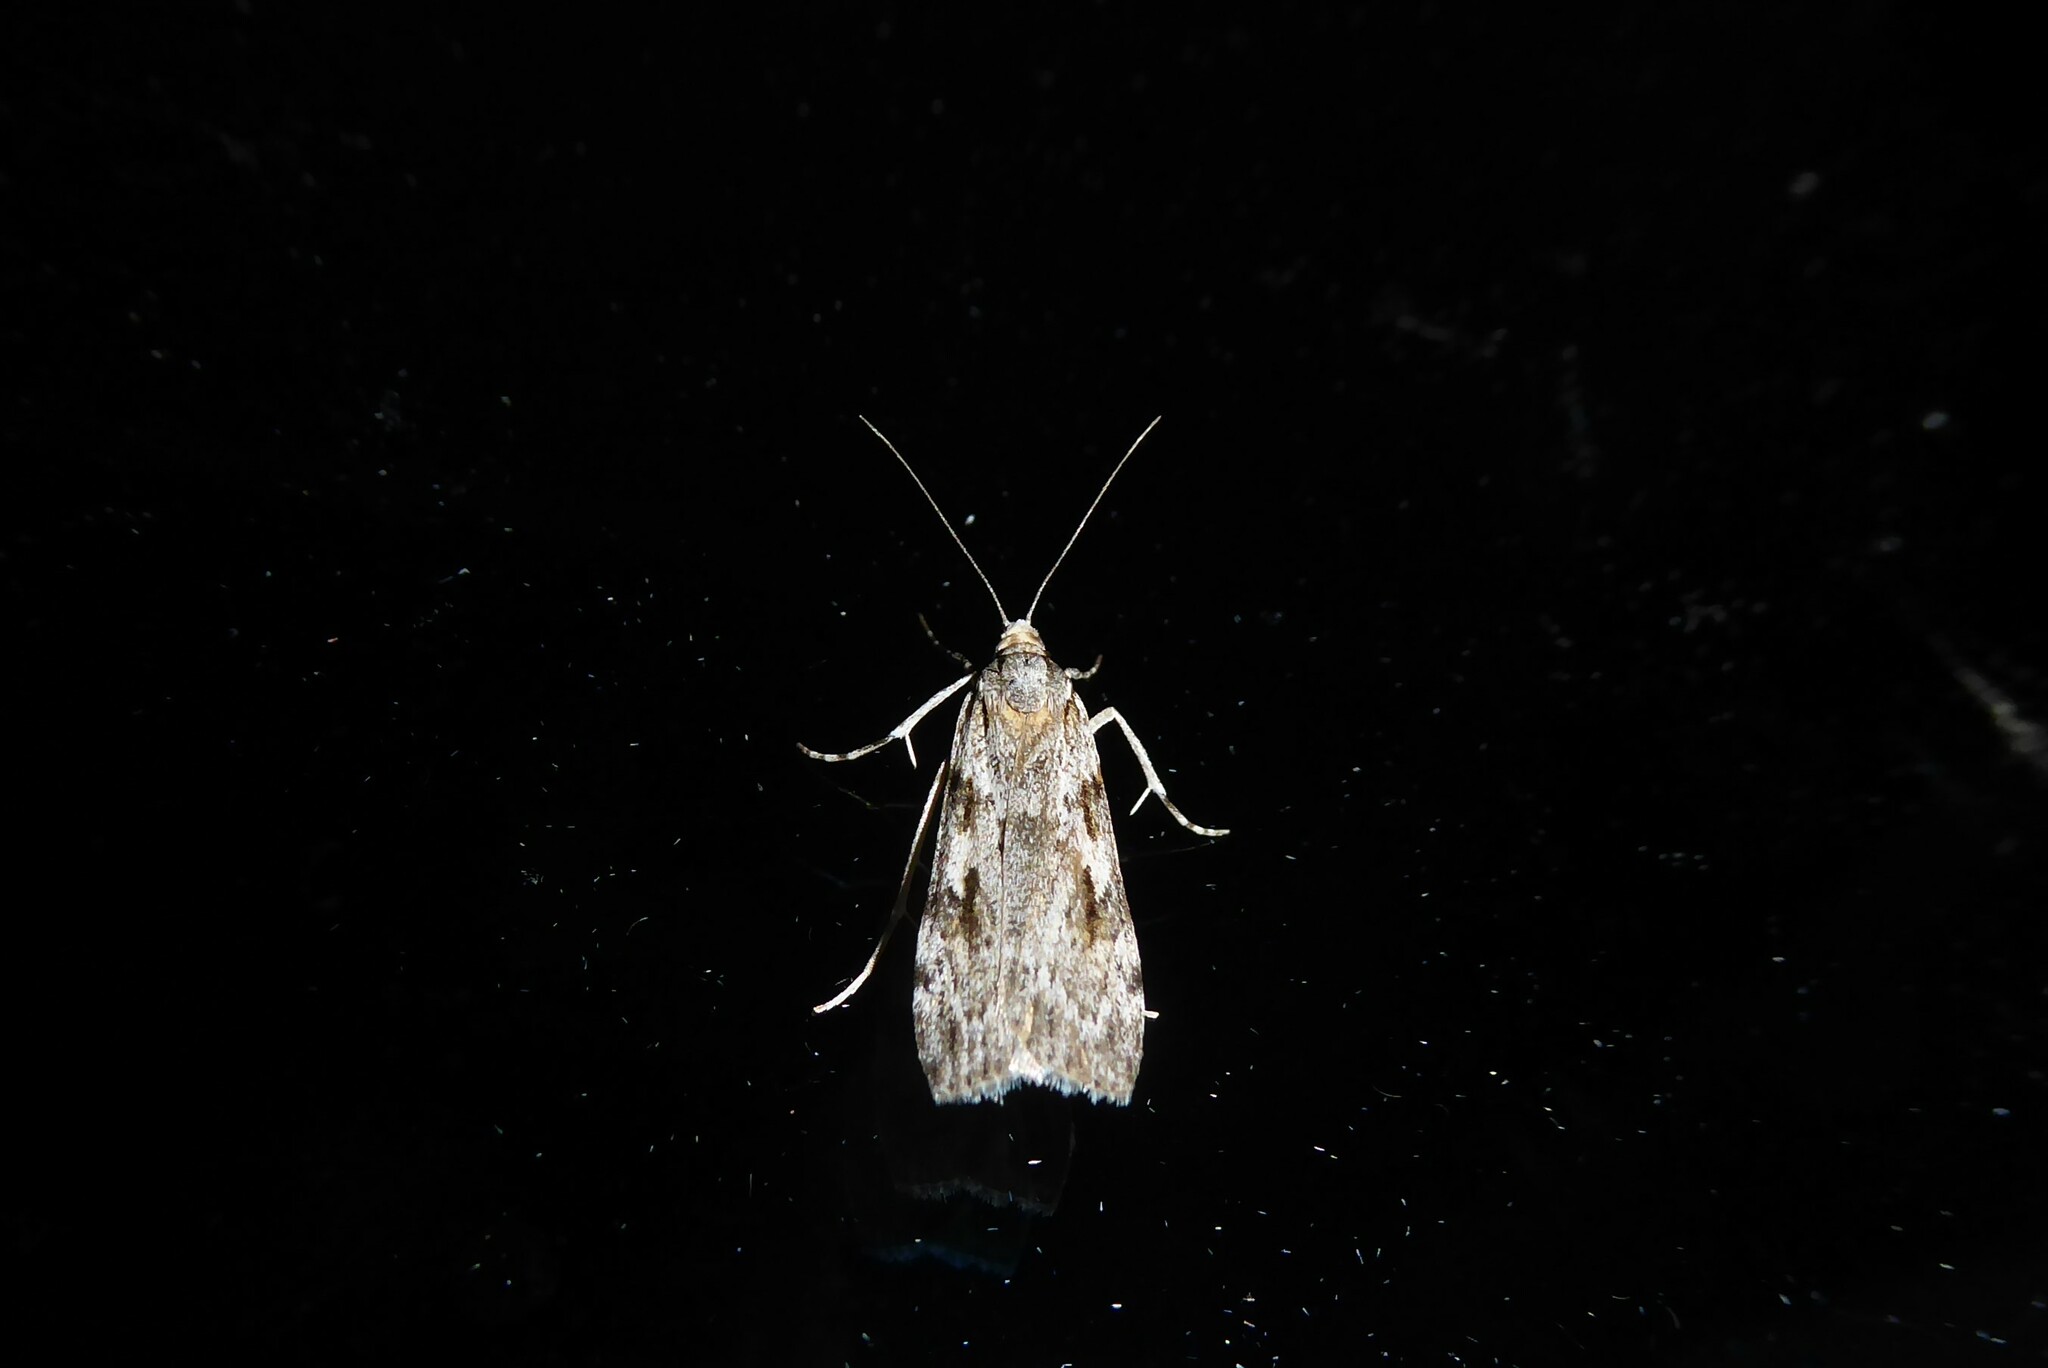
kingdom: Animalia
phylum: Arthropoda
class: Insecta
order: Lepidoptera
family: Crambidae
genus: Scoparia
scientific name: Scoparia halopis
